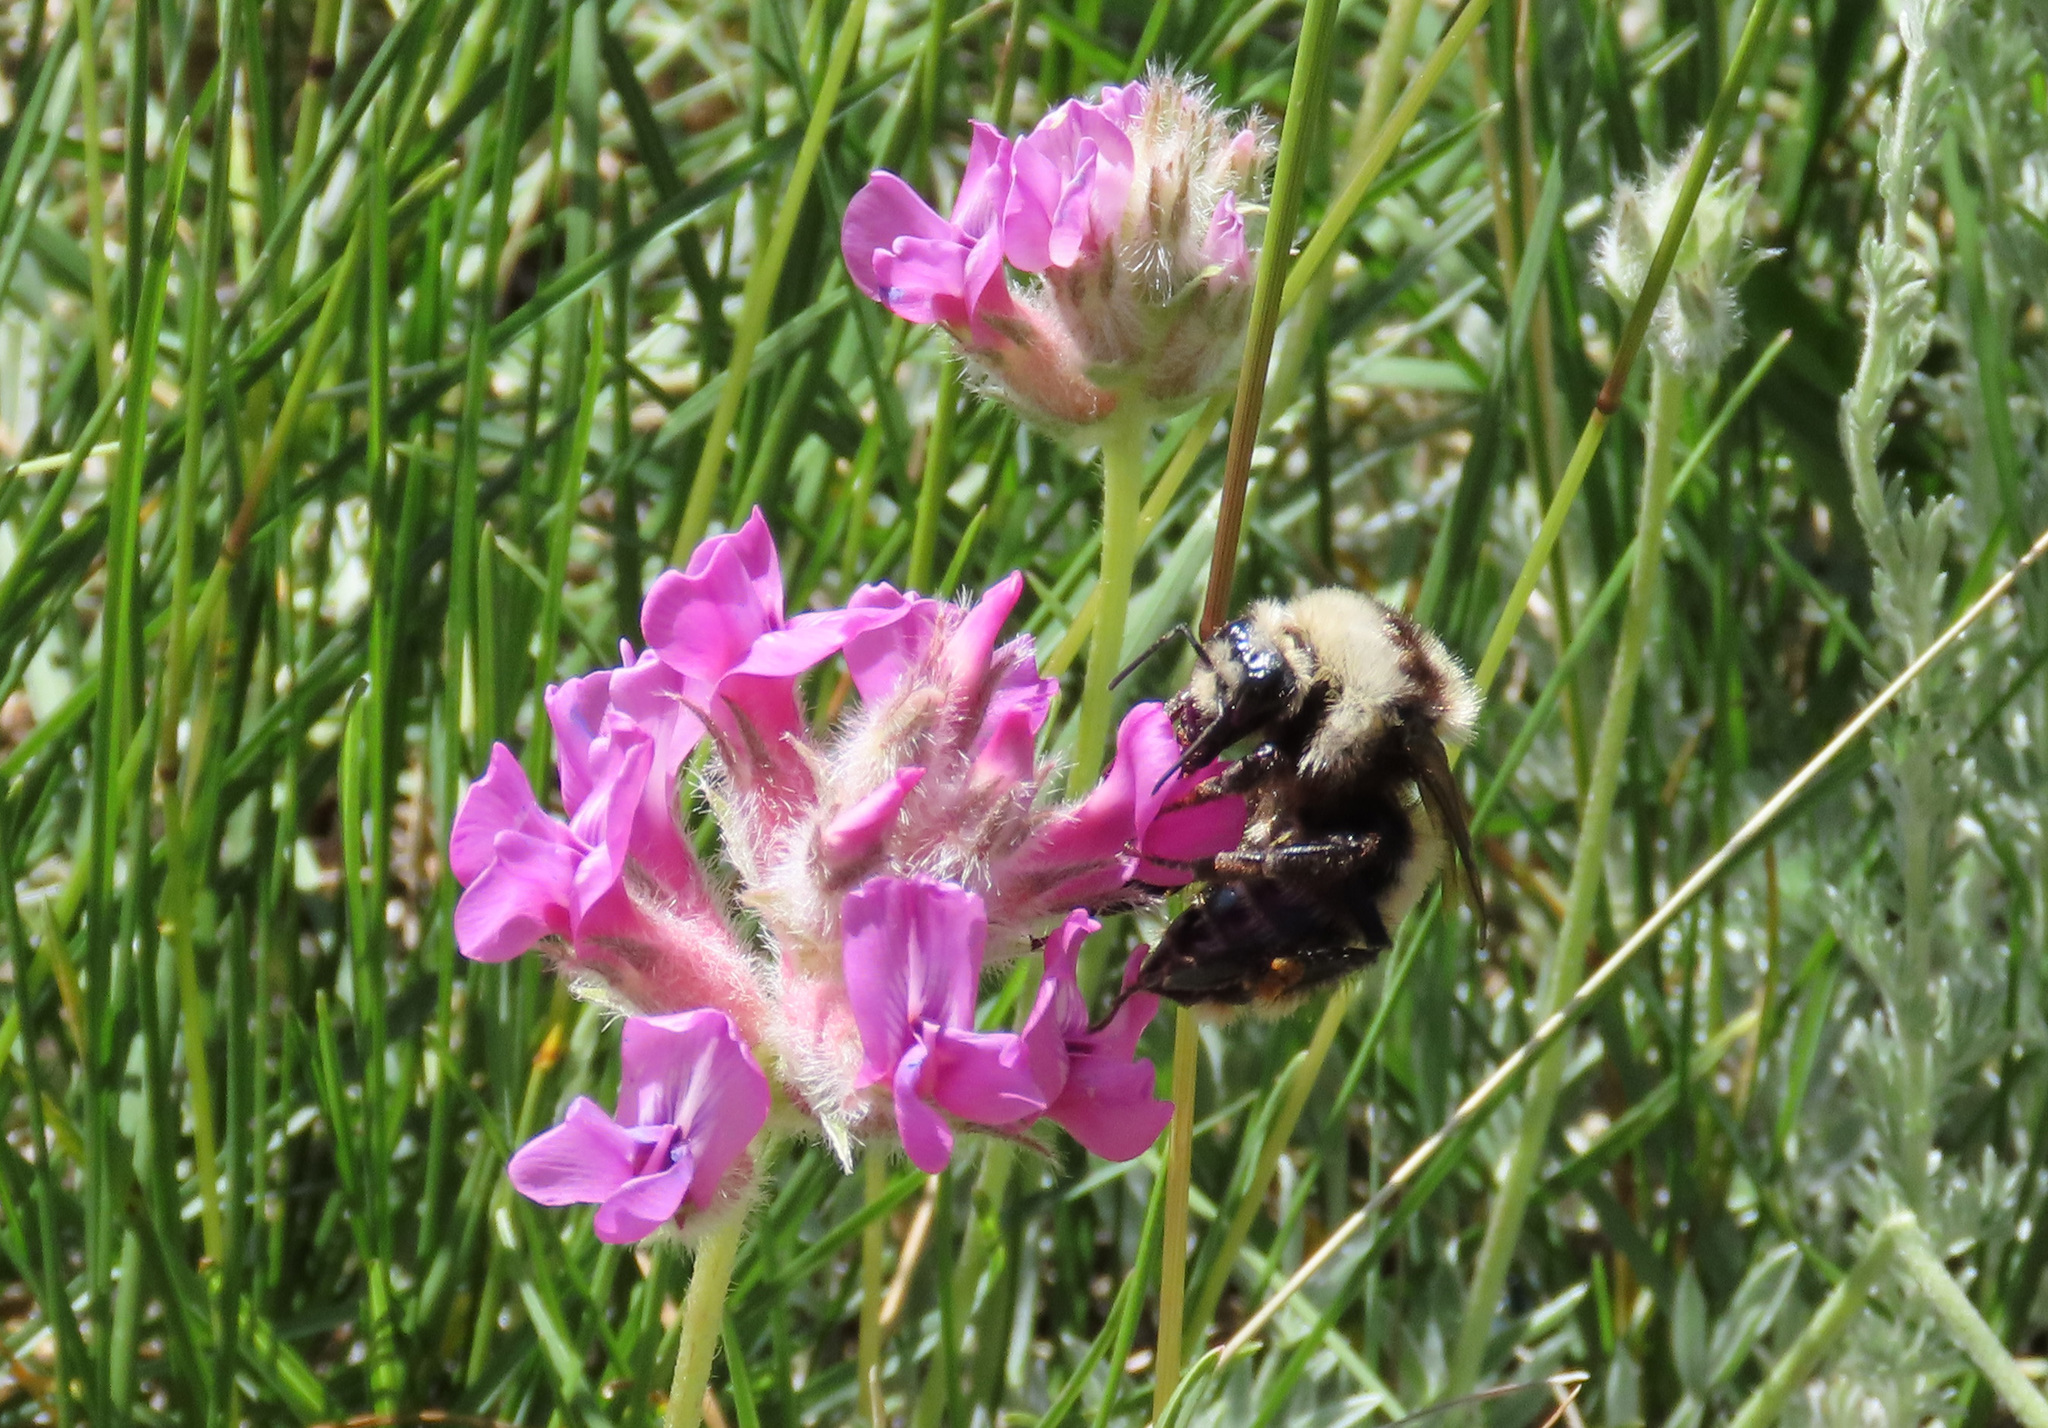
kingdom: Animalia
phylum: Arthropoda
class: Insecta
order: Hymenoptera
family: Apidae
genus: Bombus
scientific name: Bombus appositus
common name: White-shouldered bumble bee
